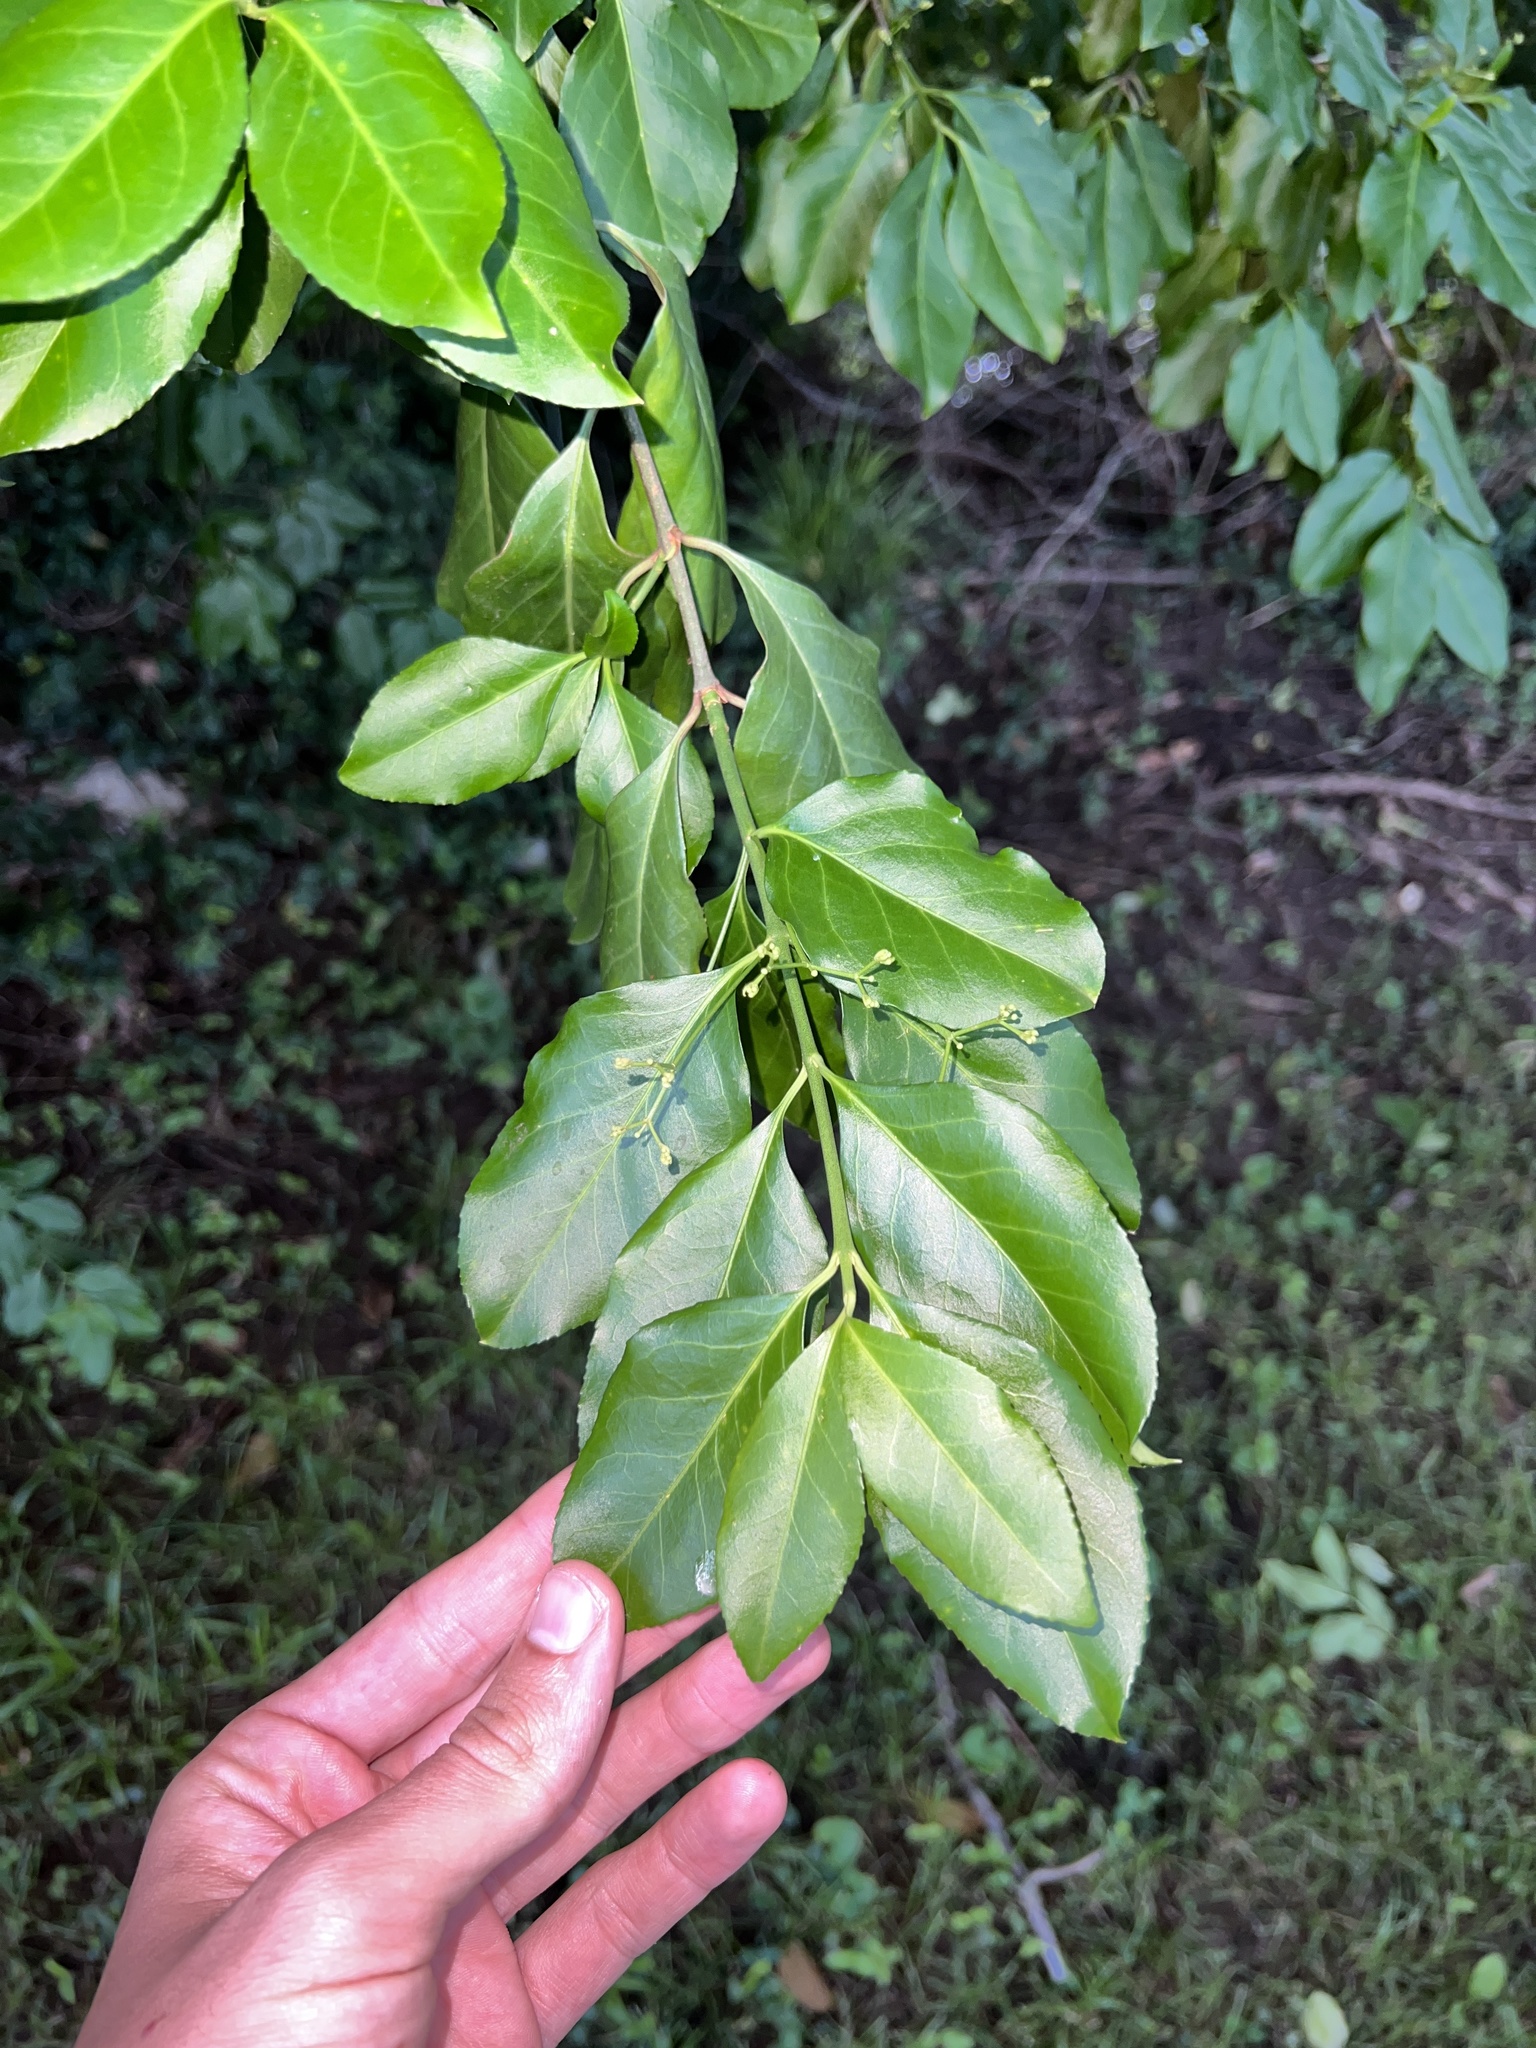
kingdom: Plantae
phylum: Tracheophyta
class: Magnoliopsida
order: Celastrales
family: Celastraceae
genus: Euonymus
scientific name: Euonymus fortunei
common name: Climbing euonymus
